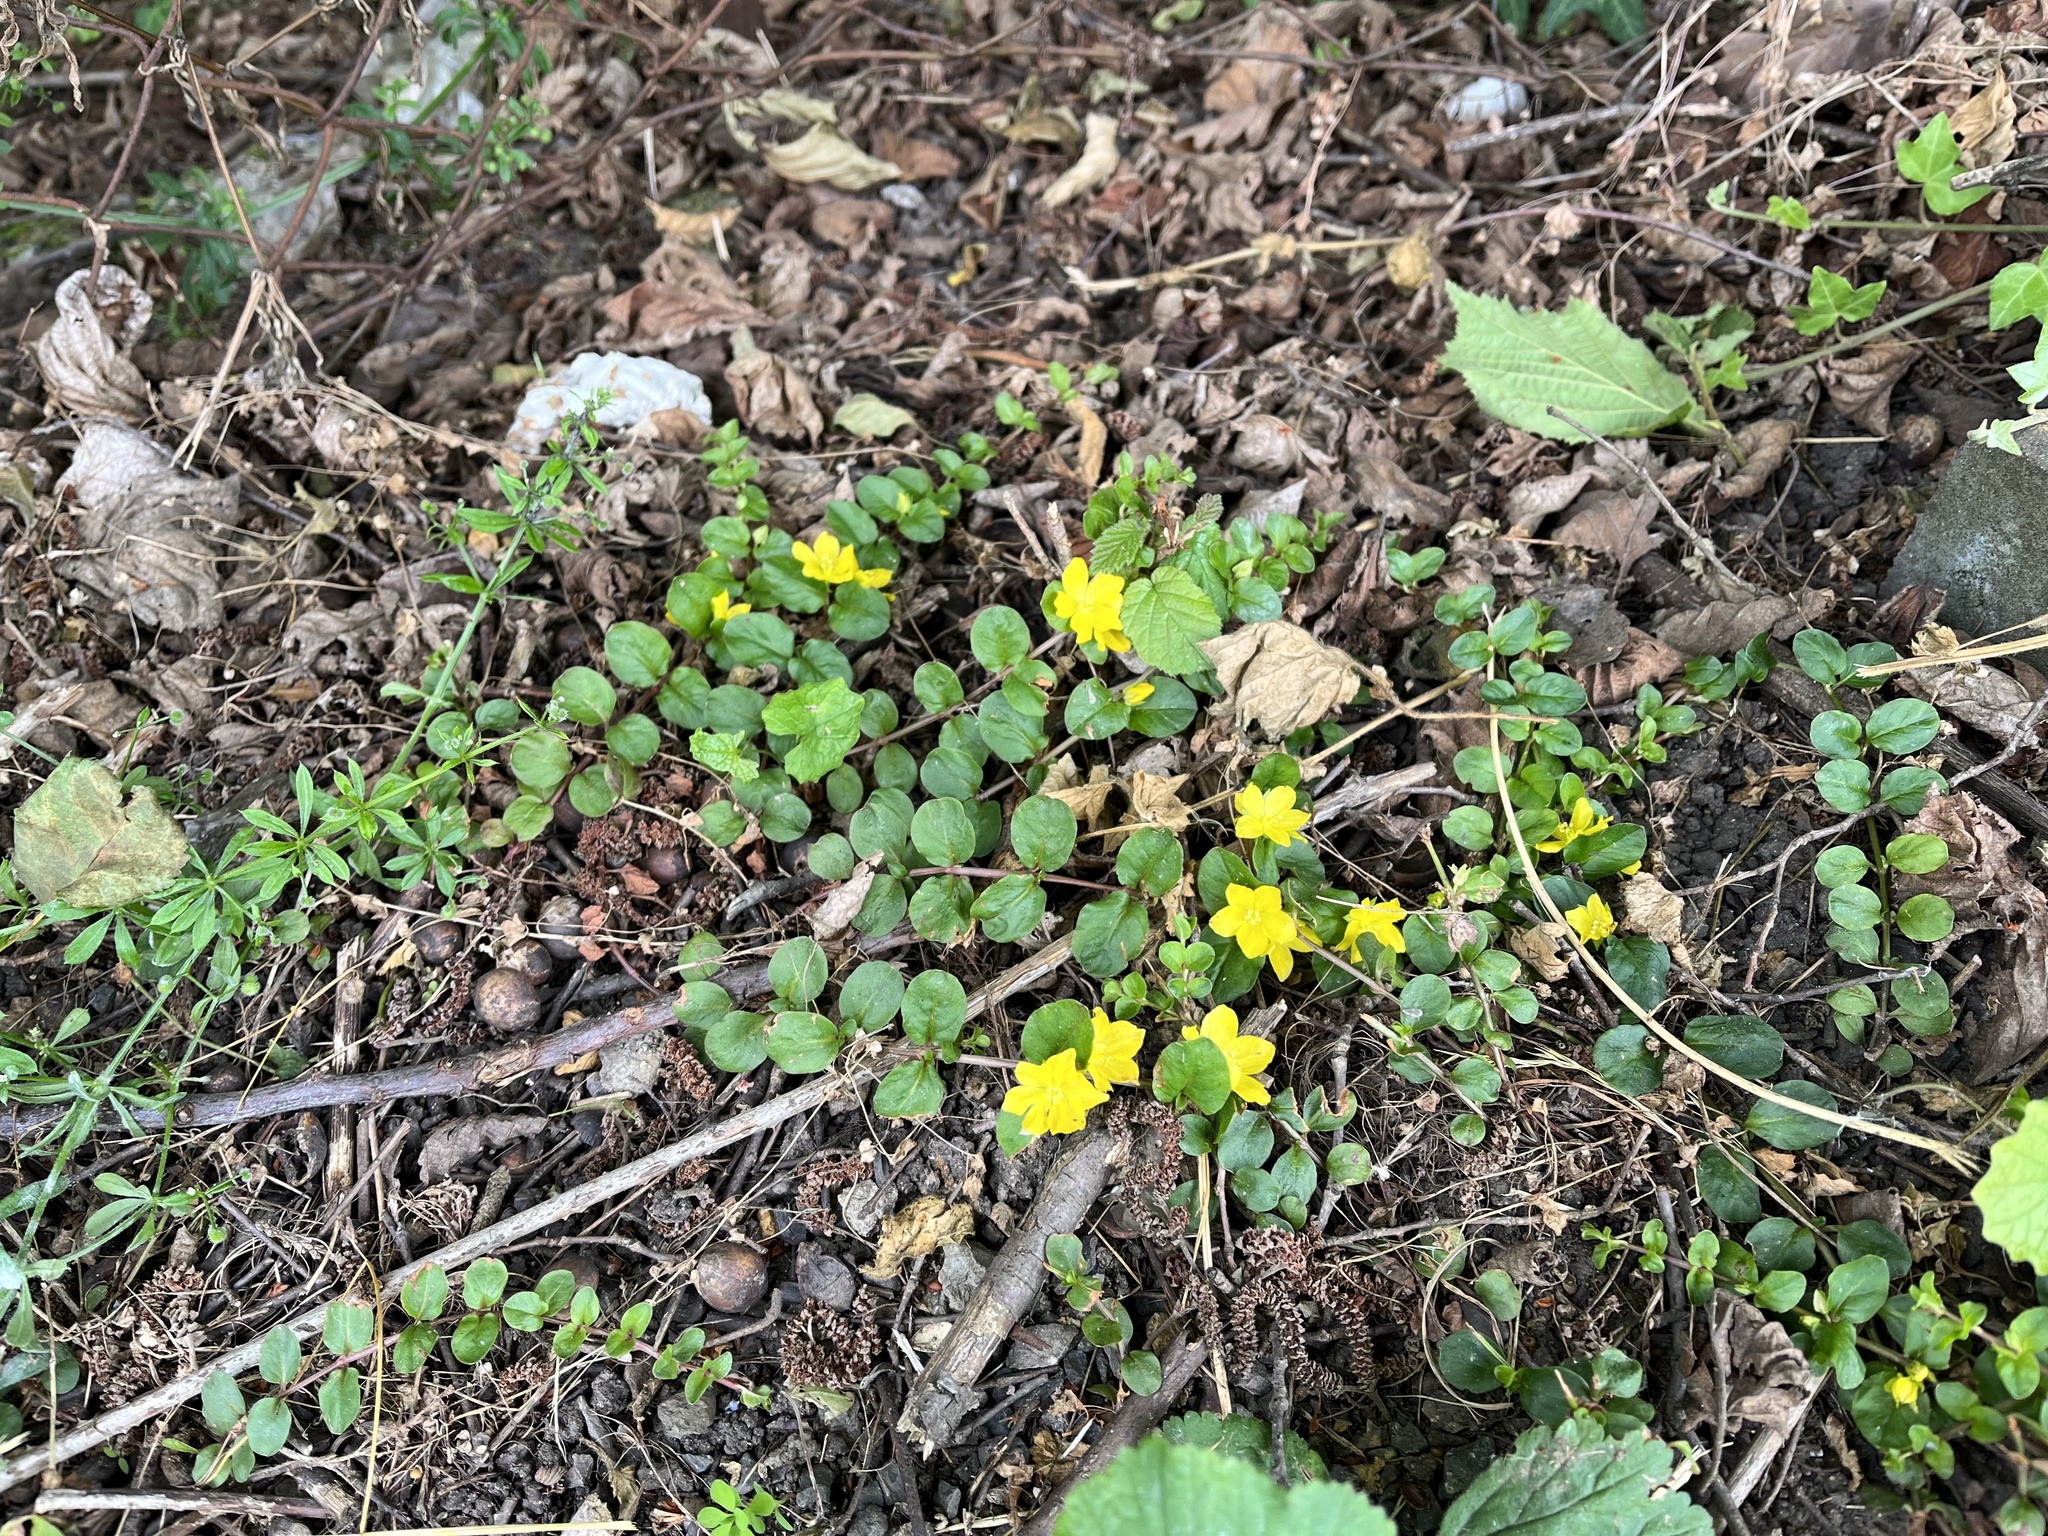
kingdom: Plantae
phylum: Tracheophyta
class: Magnoliopsida
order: Ericales
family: Primulaceae
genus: Lysimachia
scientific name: Lysimachia nummularia
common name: Moneywort
